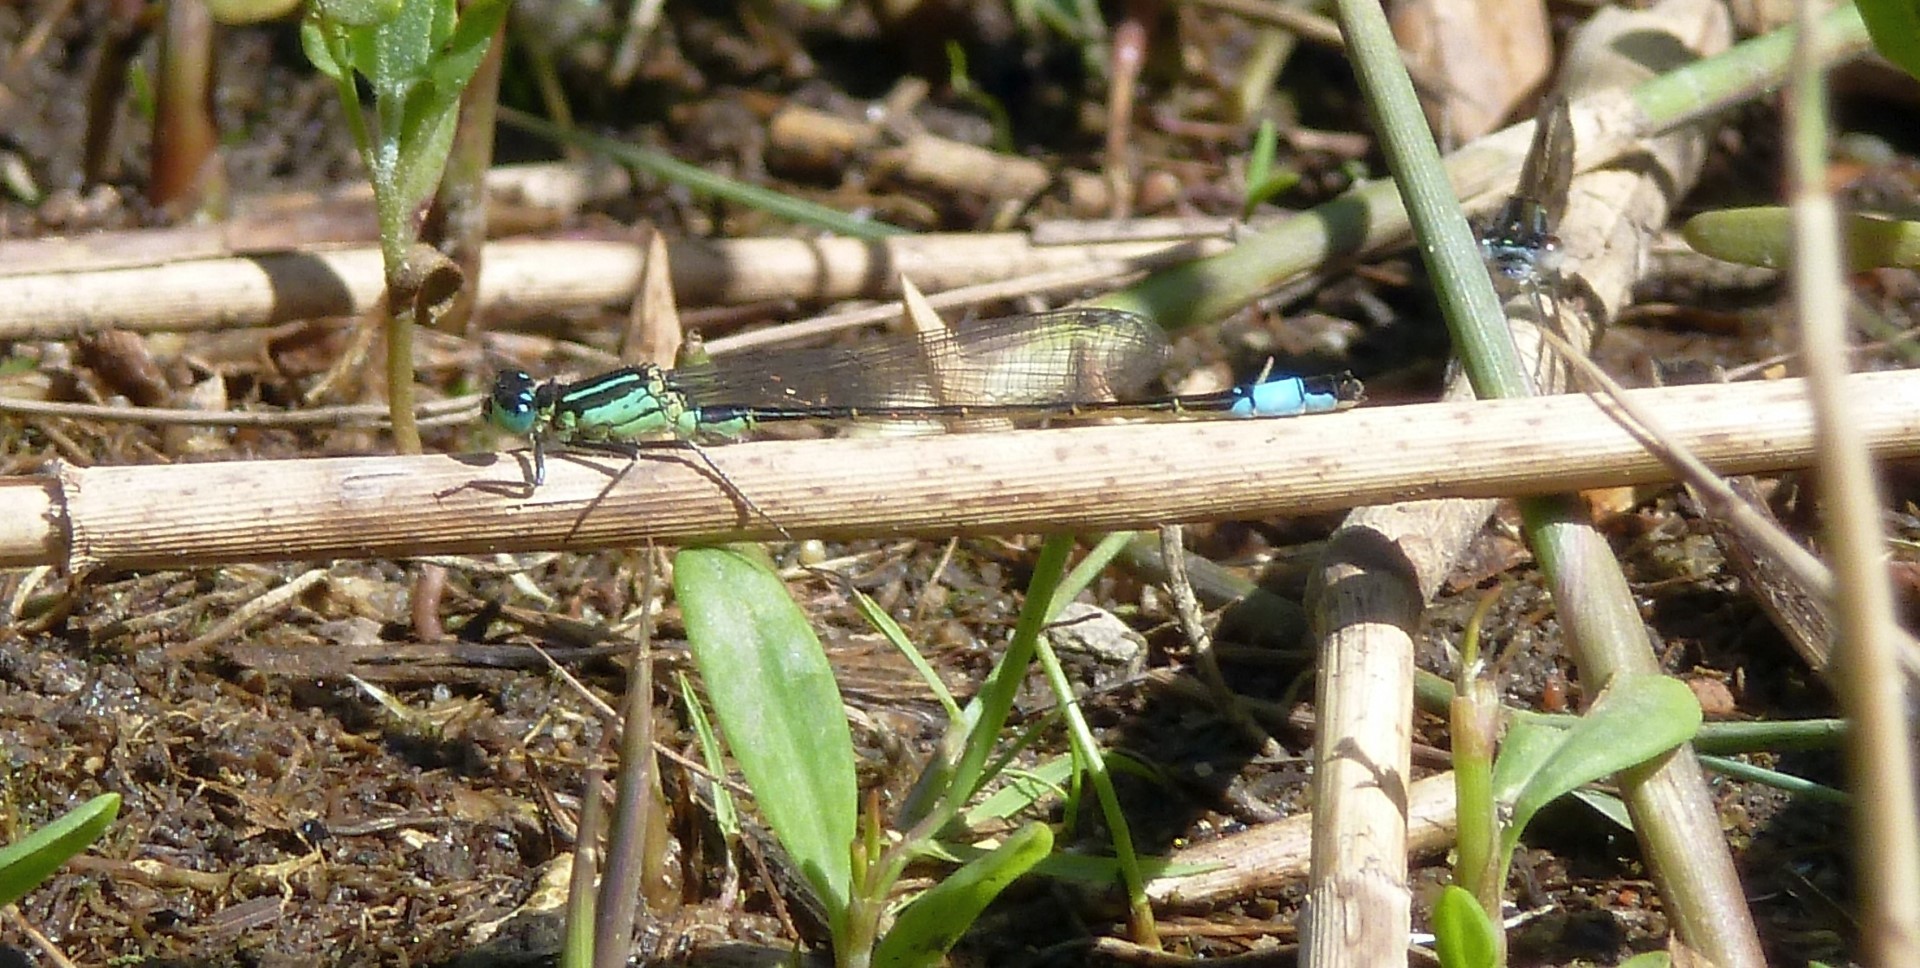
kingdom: Animalia
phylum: Arthropoda
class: Insecta
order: Odonata
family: Coenagrionidae
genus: Ischnura
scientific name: Ischnura elegans
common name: Blue-tailed damselfly
